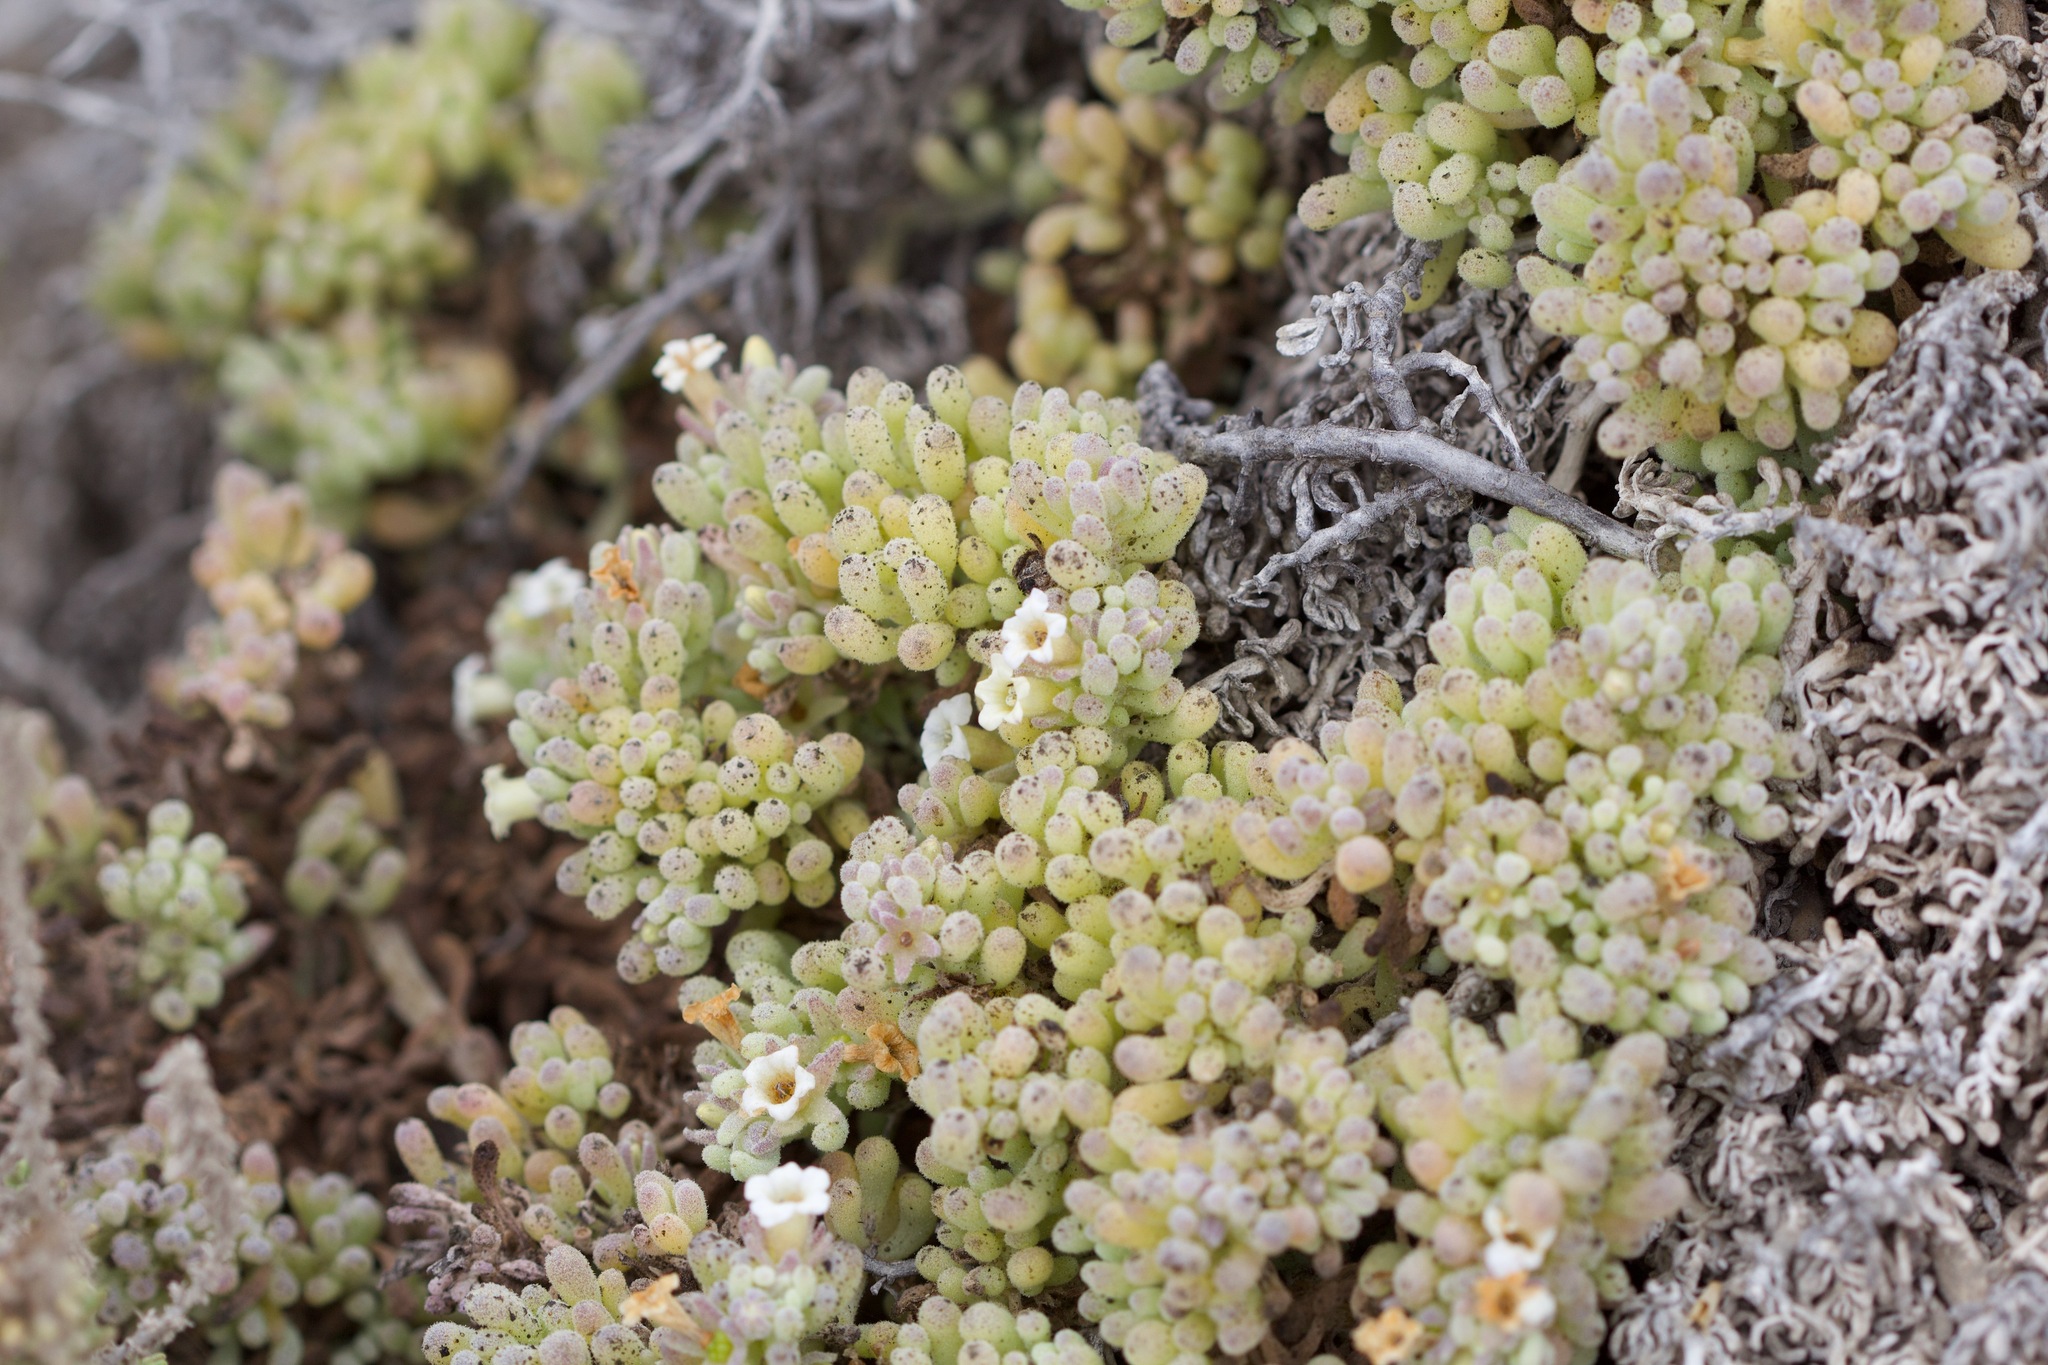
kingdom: Plantae
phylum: Tracheophyta
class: Magnoliopsida
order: Solanales
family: Solanaceae
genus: Nolana
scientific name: Nolana crassulifolia
